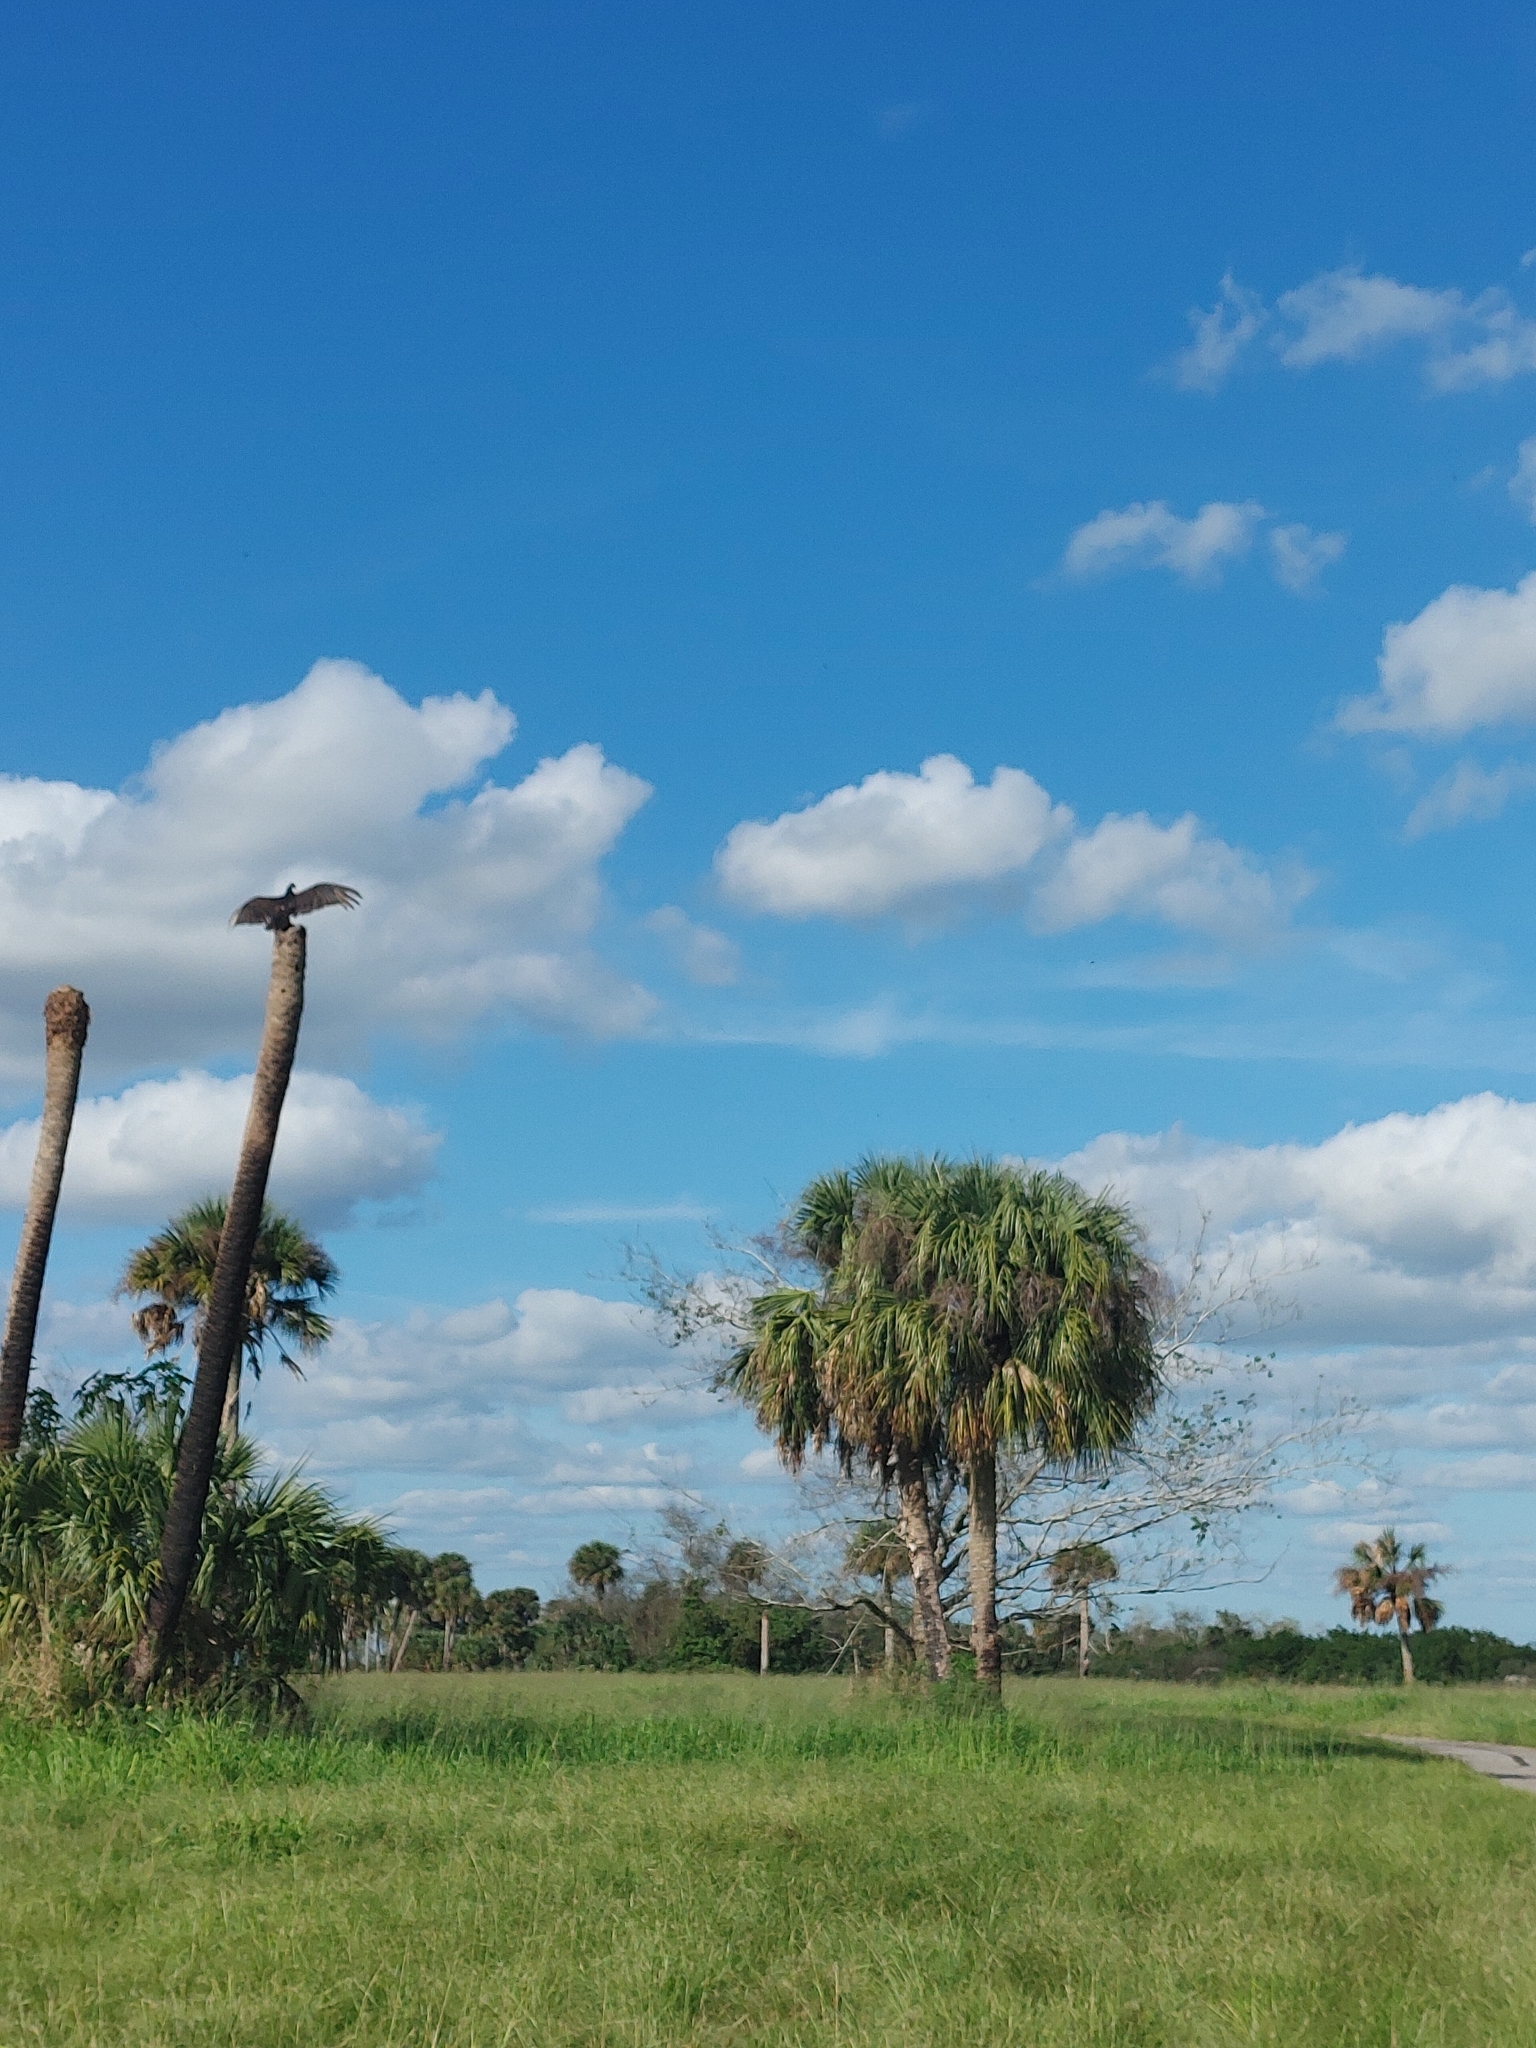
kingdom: Animalia
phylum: Chordata
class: Aves
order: Accipitriformes
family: Cathartidae
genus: Cathartes
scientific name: Cathartes aura
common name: Turkey vulture
